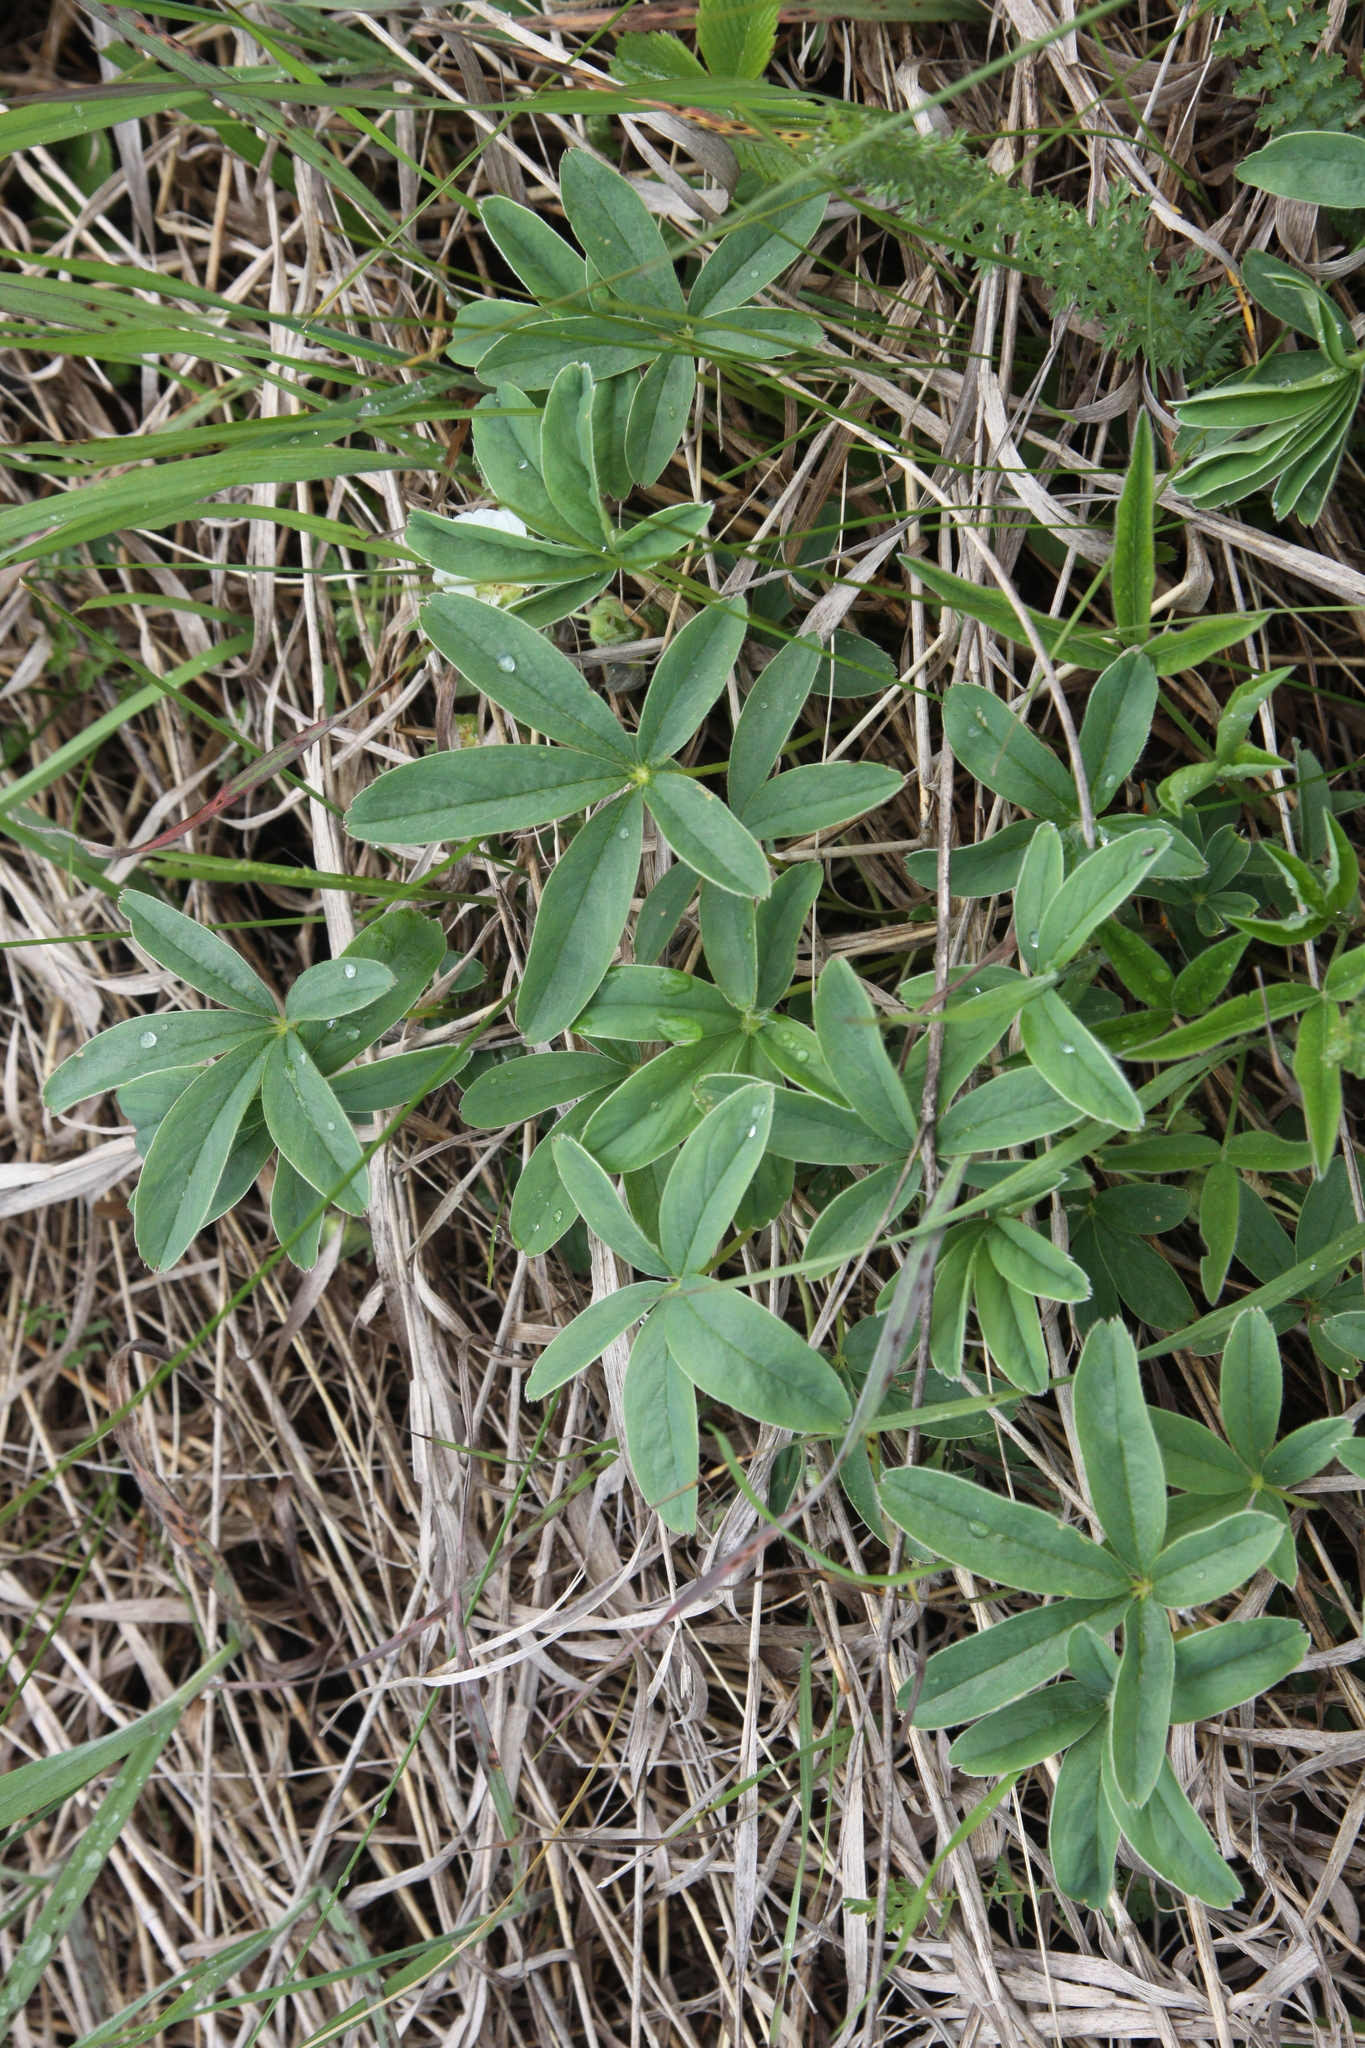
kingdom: Plantae
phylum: Tracheophyta
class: Magnoliopsida
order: Rosales
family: Rosaceae
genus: Potentilla
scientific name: Potentilla alba
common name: White cinquefoil
